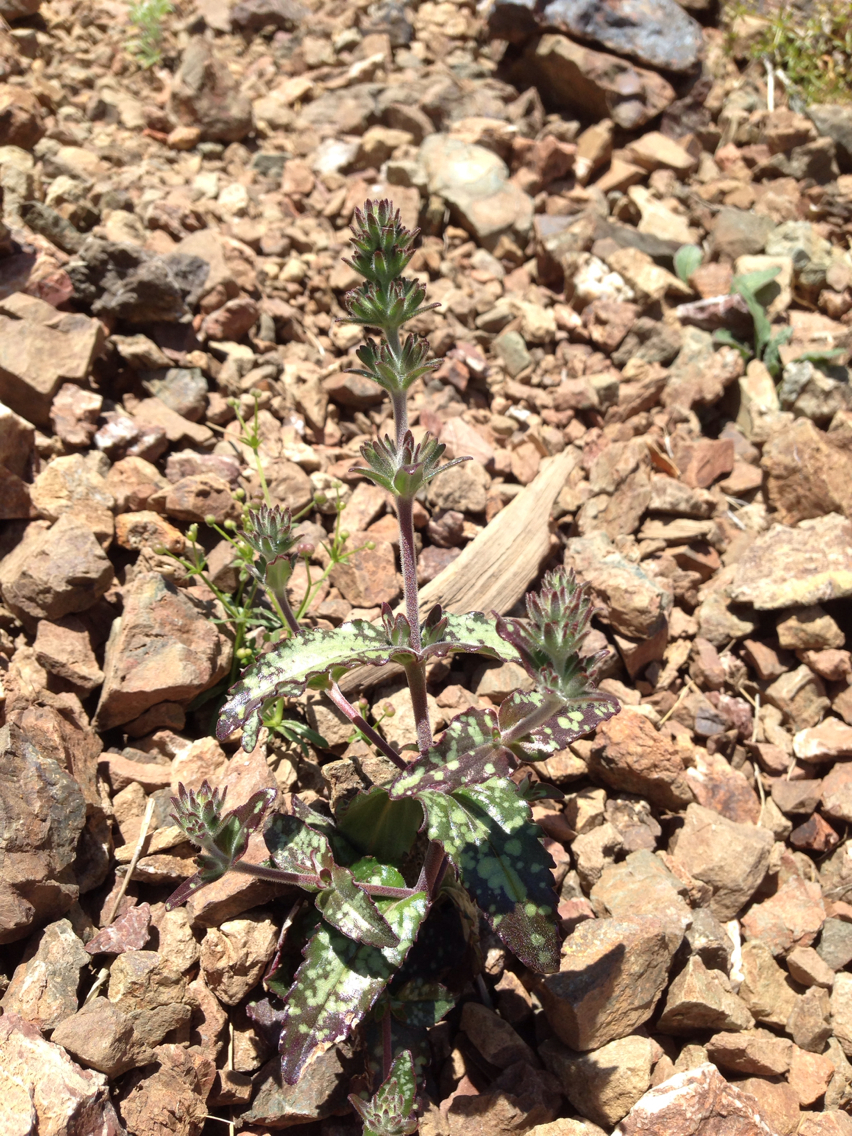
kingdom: Plantae
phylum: Tracheophyta
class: Magnoliopsida
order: Lamiales
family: Plantaginaceae
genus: Collinsia
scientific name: Collinsia tinctoria
